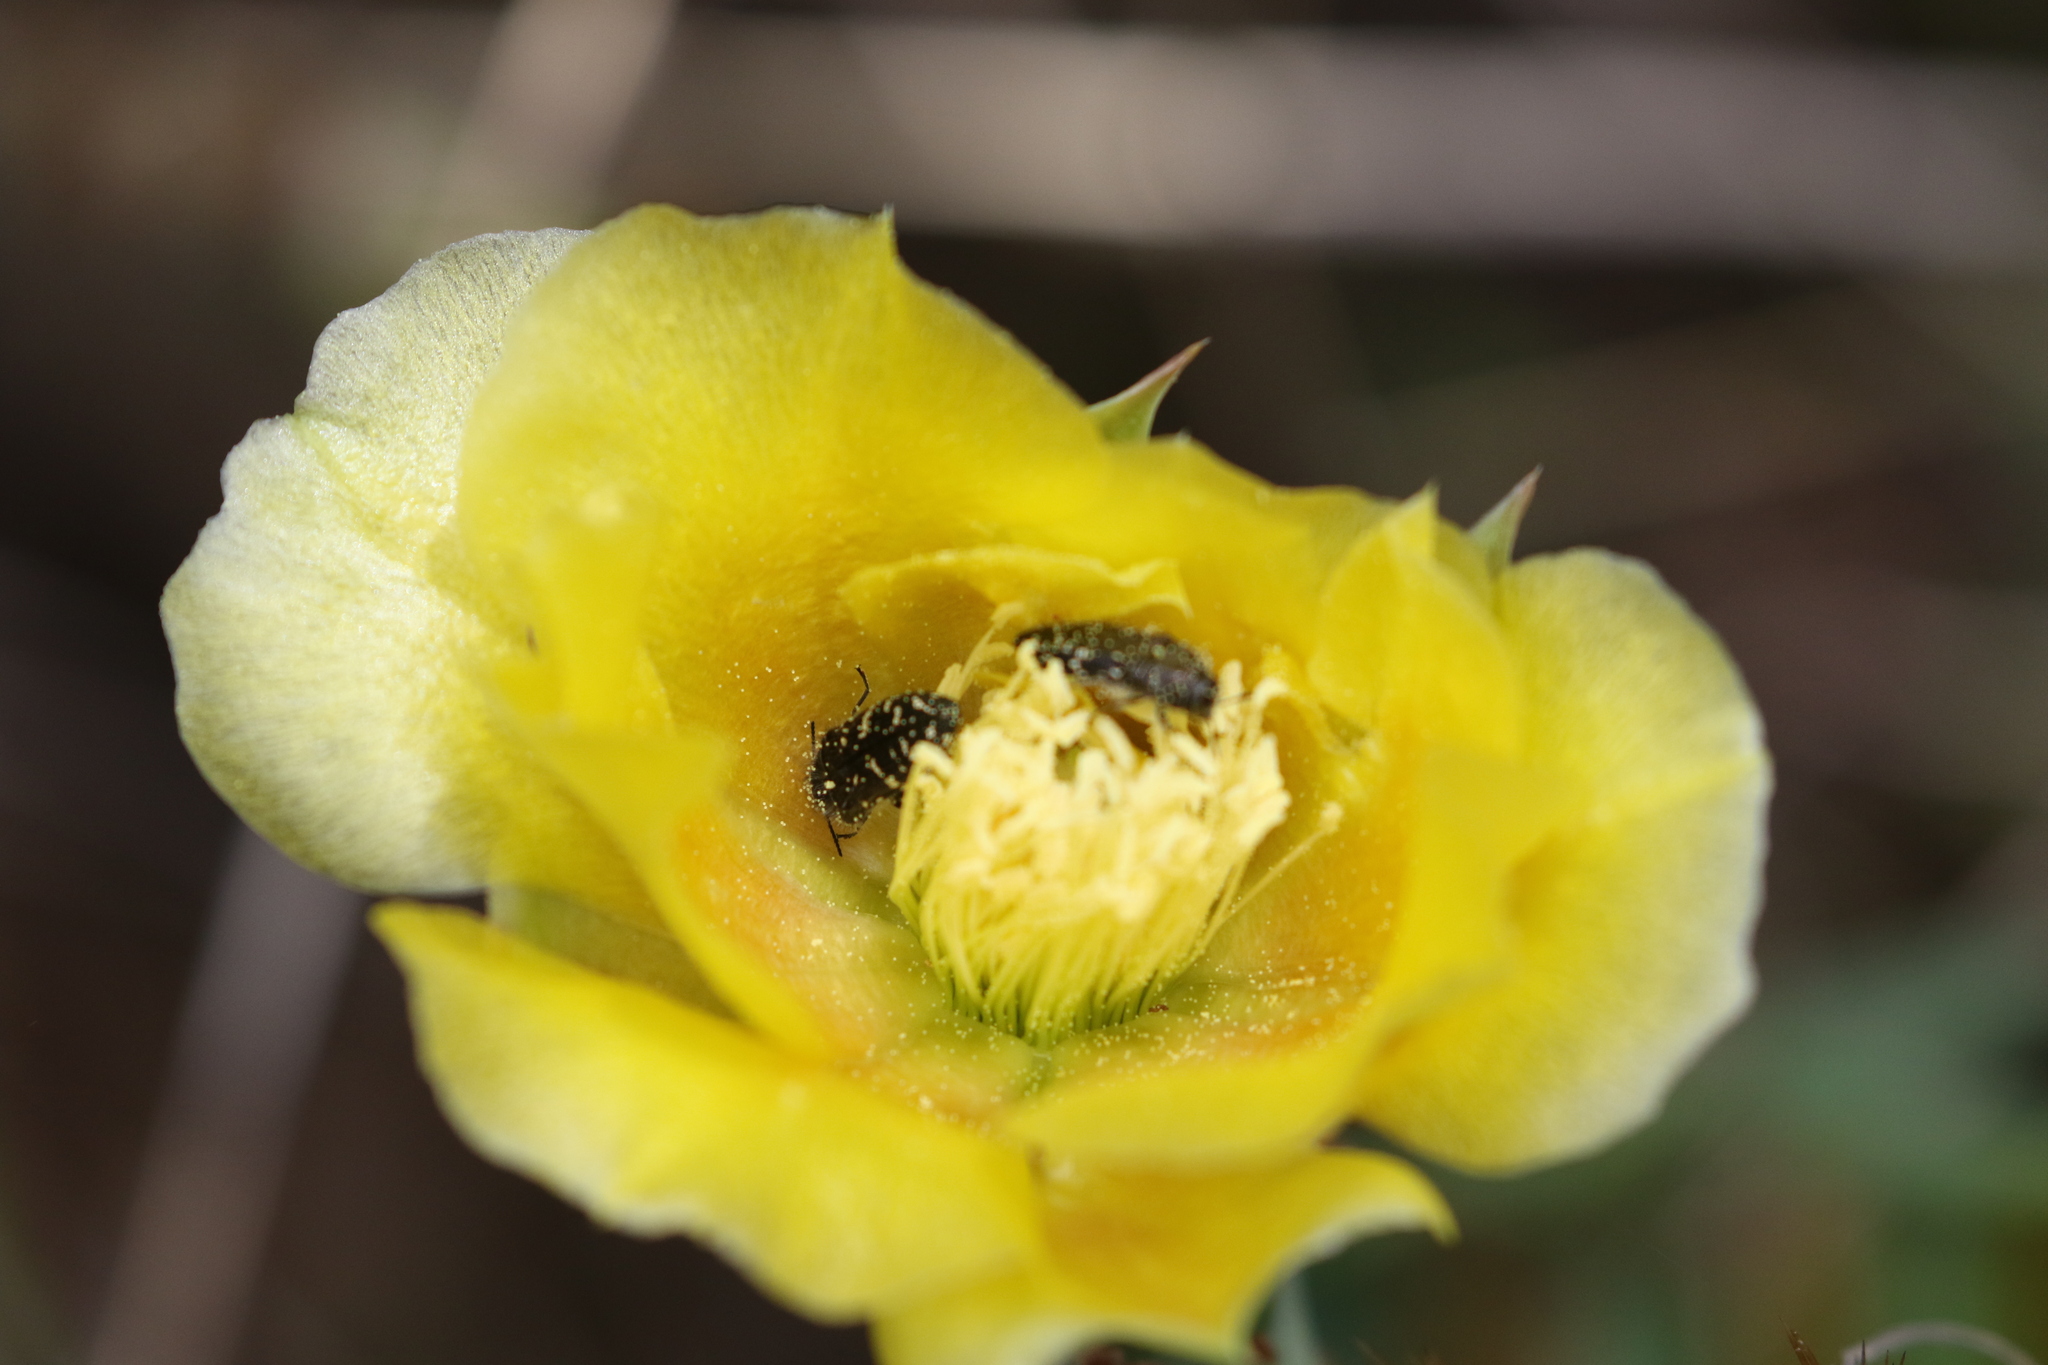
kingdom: Animalia
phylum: Arthropoda
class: Insecta
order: Coleoptera
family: Buprestidae
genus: Acmaeodera
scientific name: Acmaeodera ornatoides
